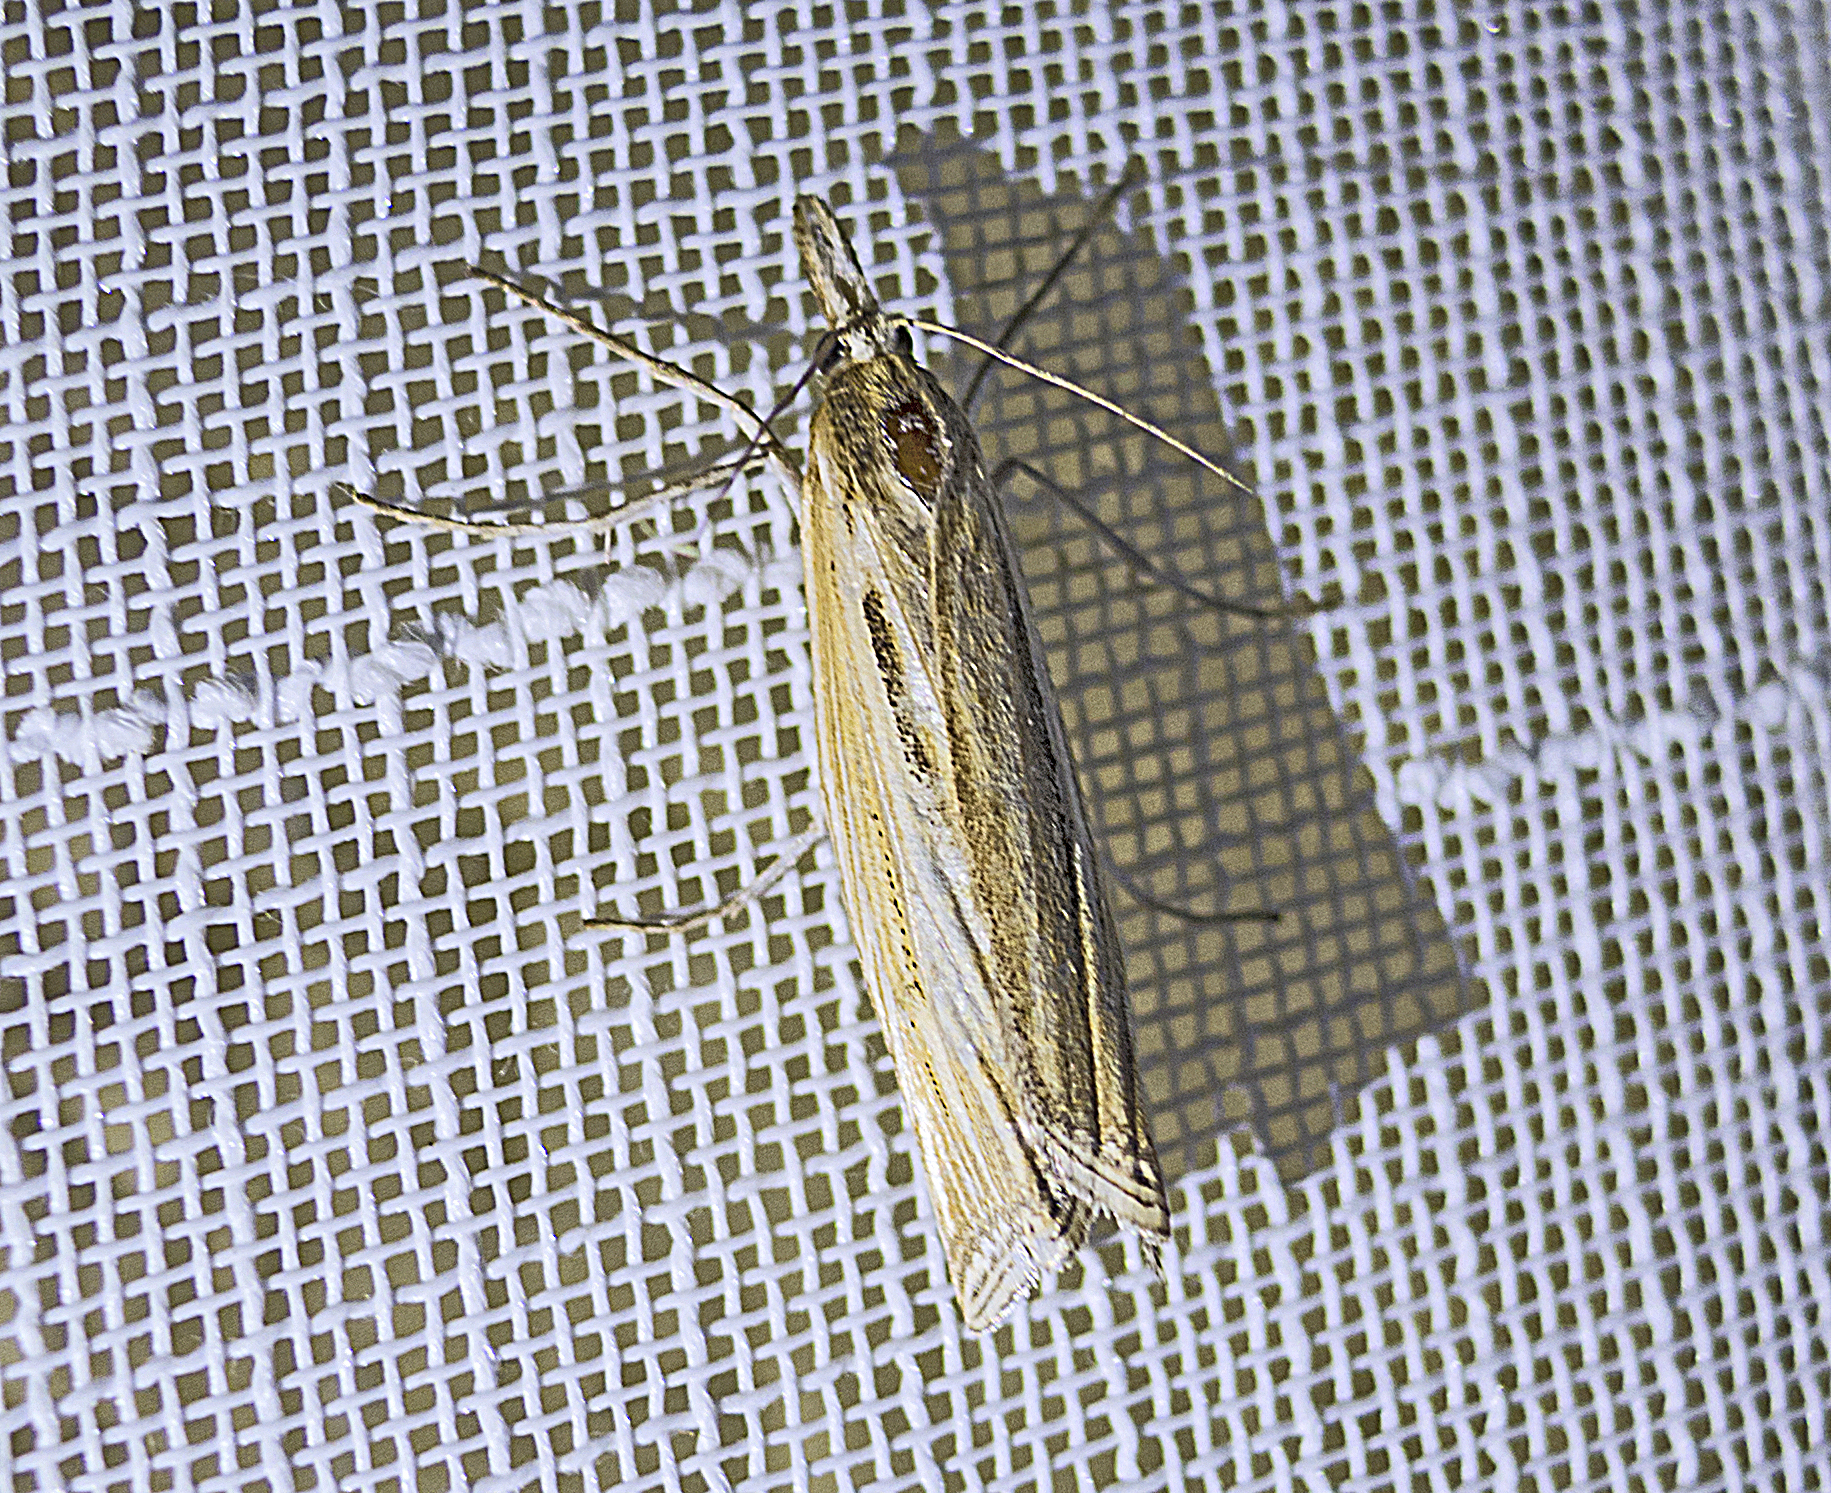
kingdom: Animalia
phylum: Arthropoda
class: Insecta
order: Lepidoptera
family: Crambidae
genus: Ancylolomia
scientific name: Ancylolomia
